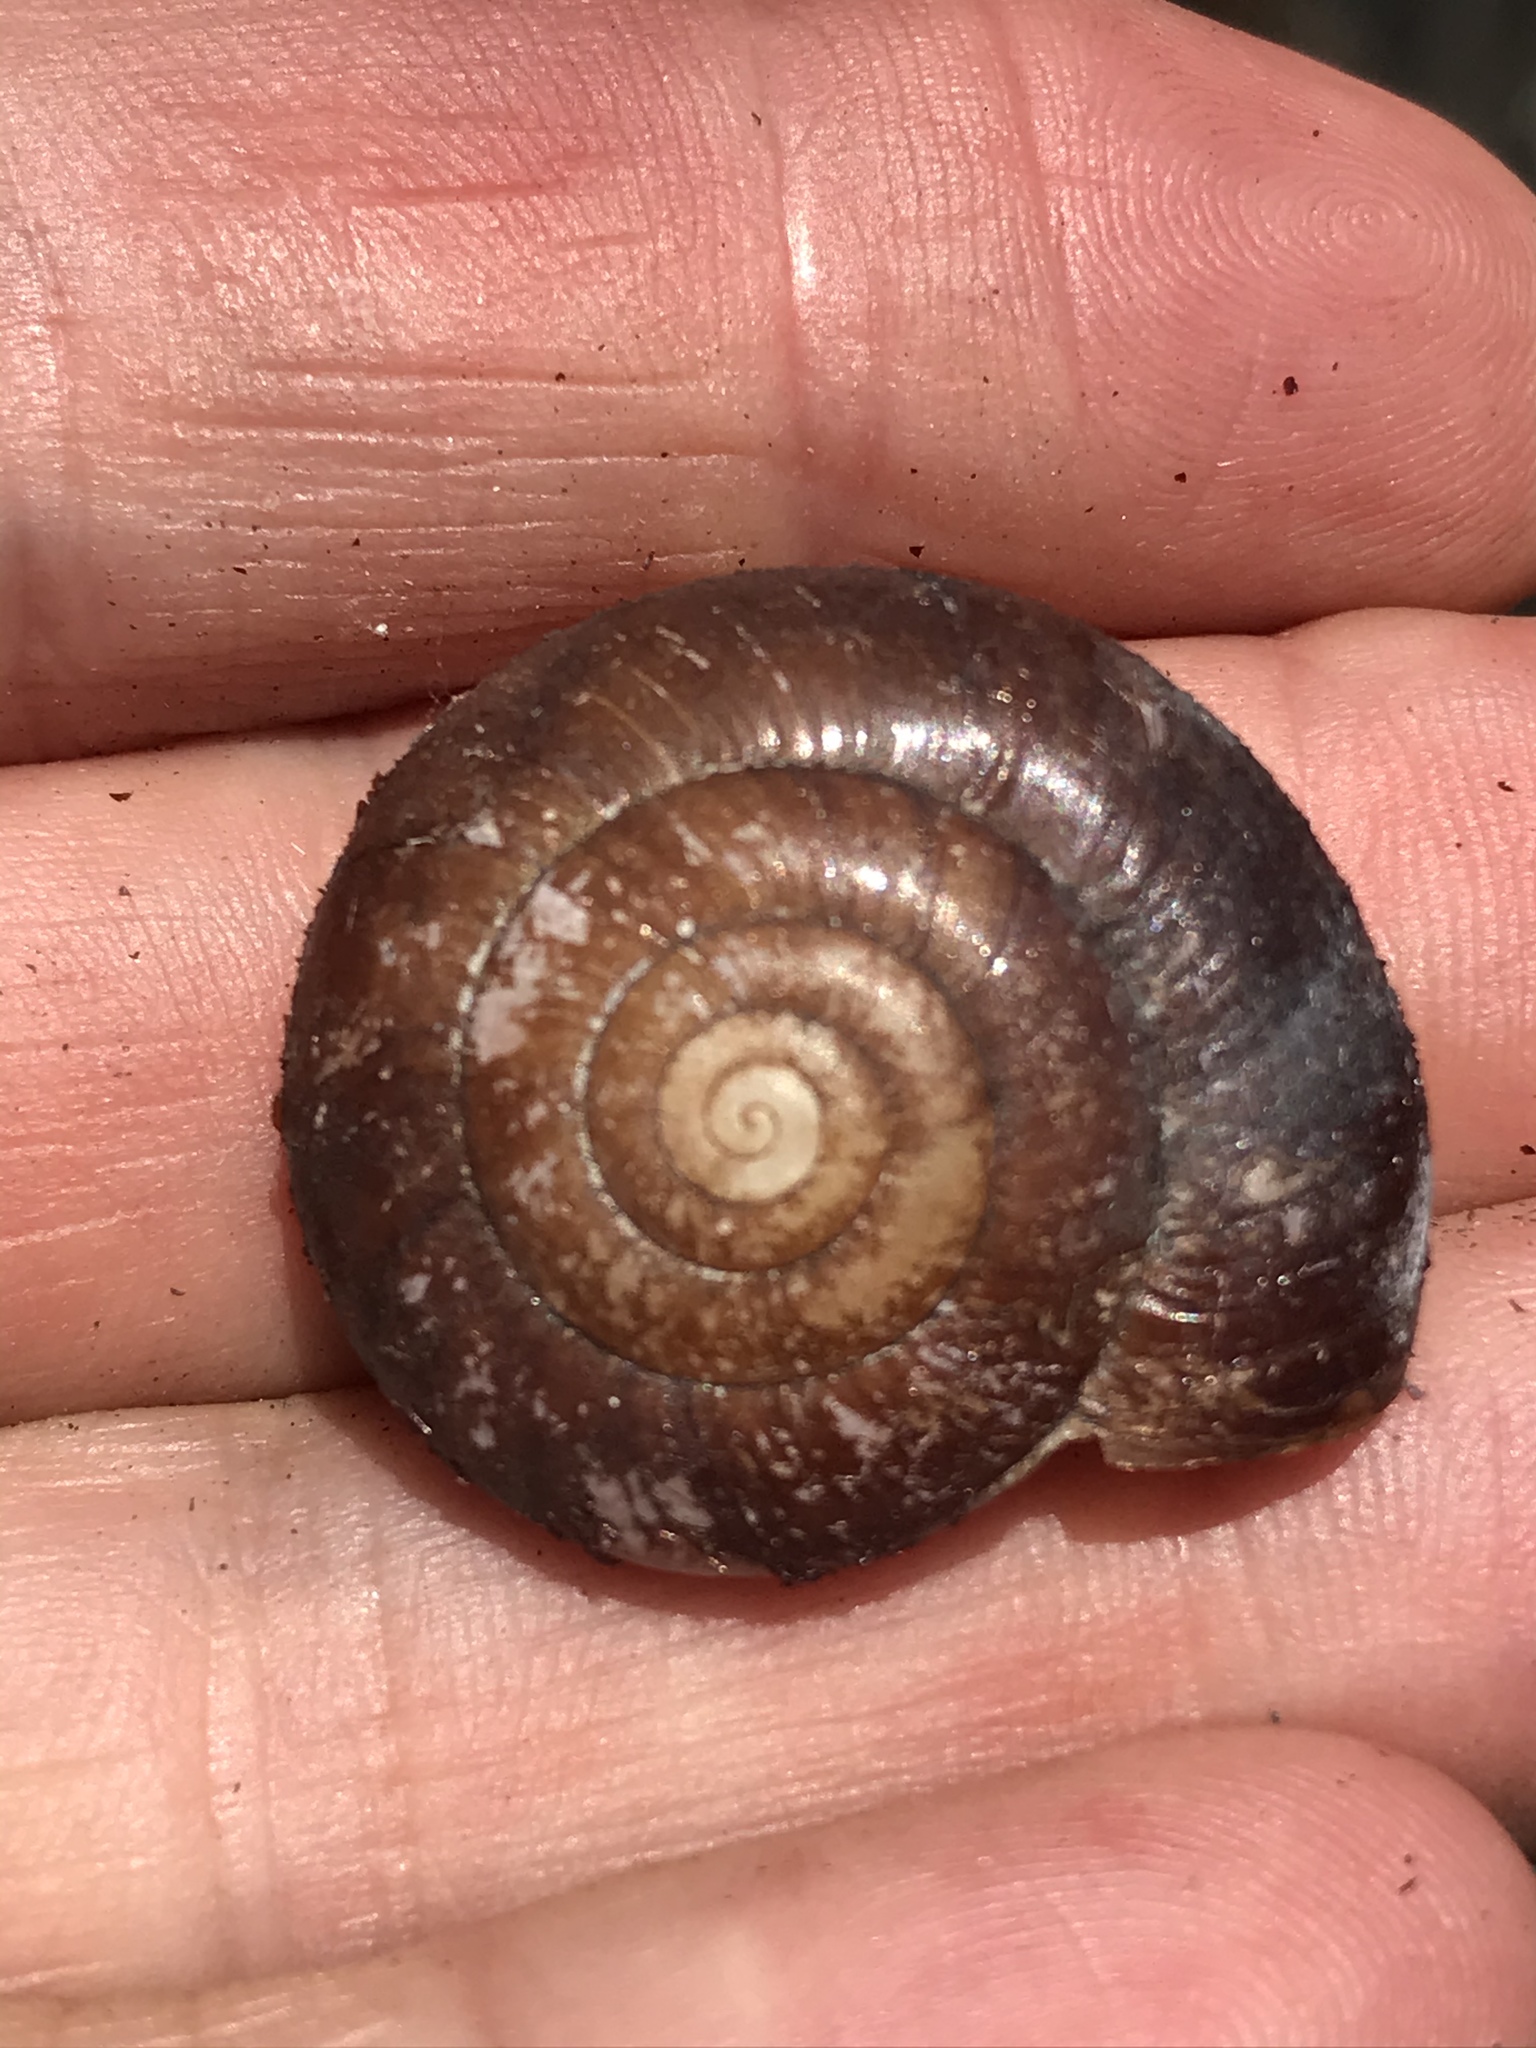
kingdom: Animalia
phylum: Mollusca
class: Gastropoda
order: Stylommatophora
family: Megomphicidae
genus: Glyptostoma
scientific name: Glyptostoma gabrielense
